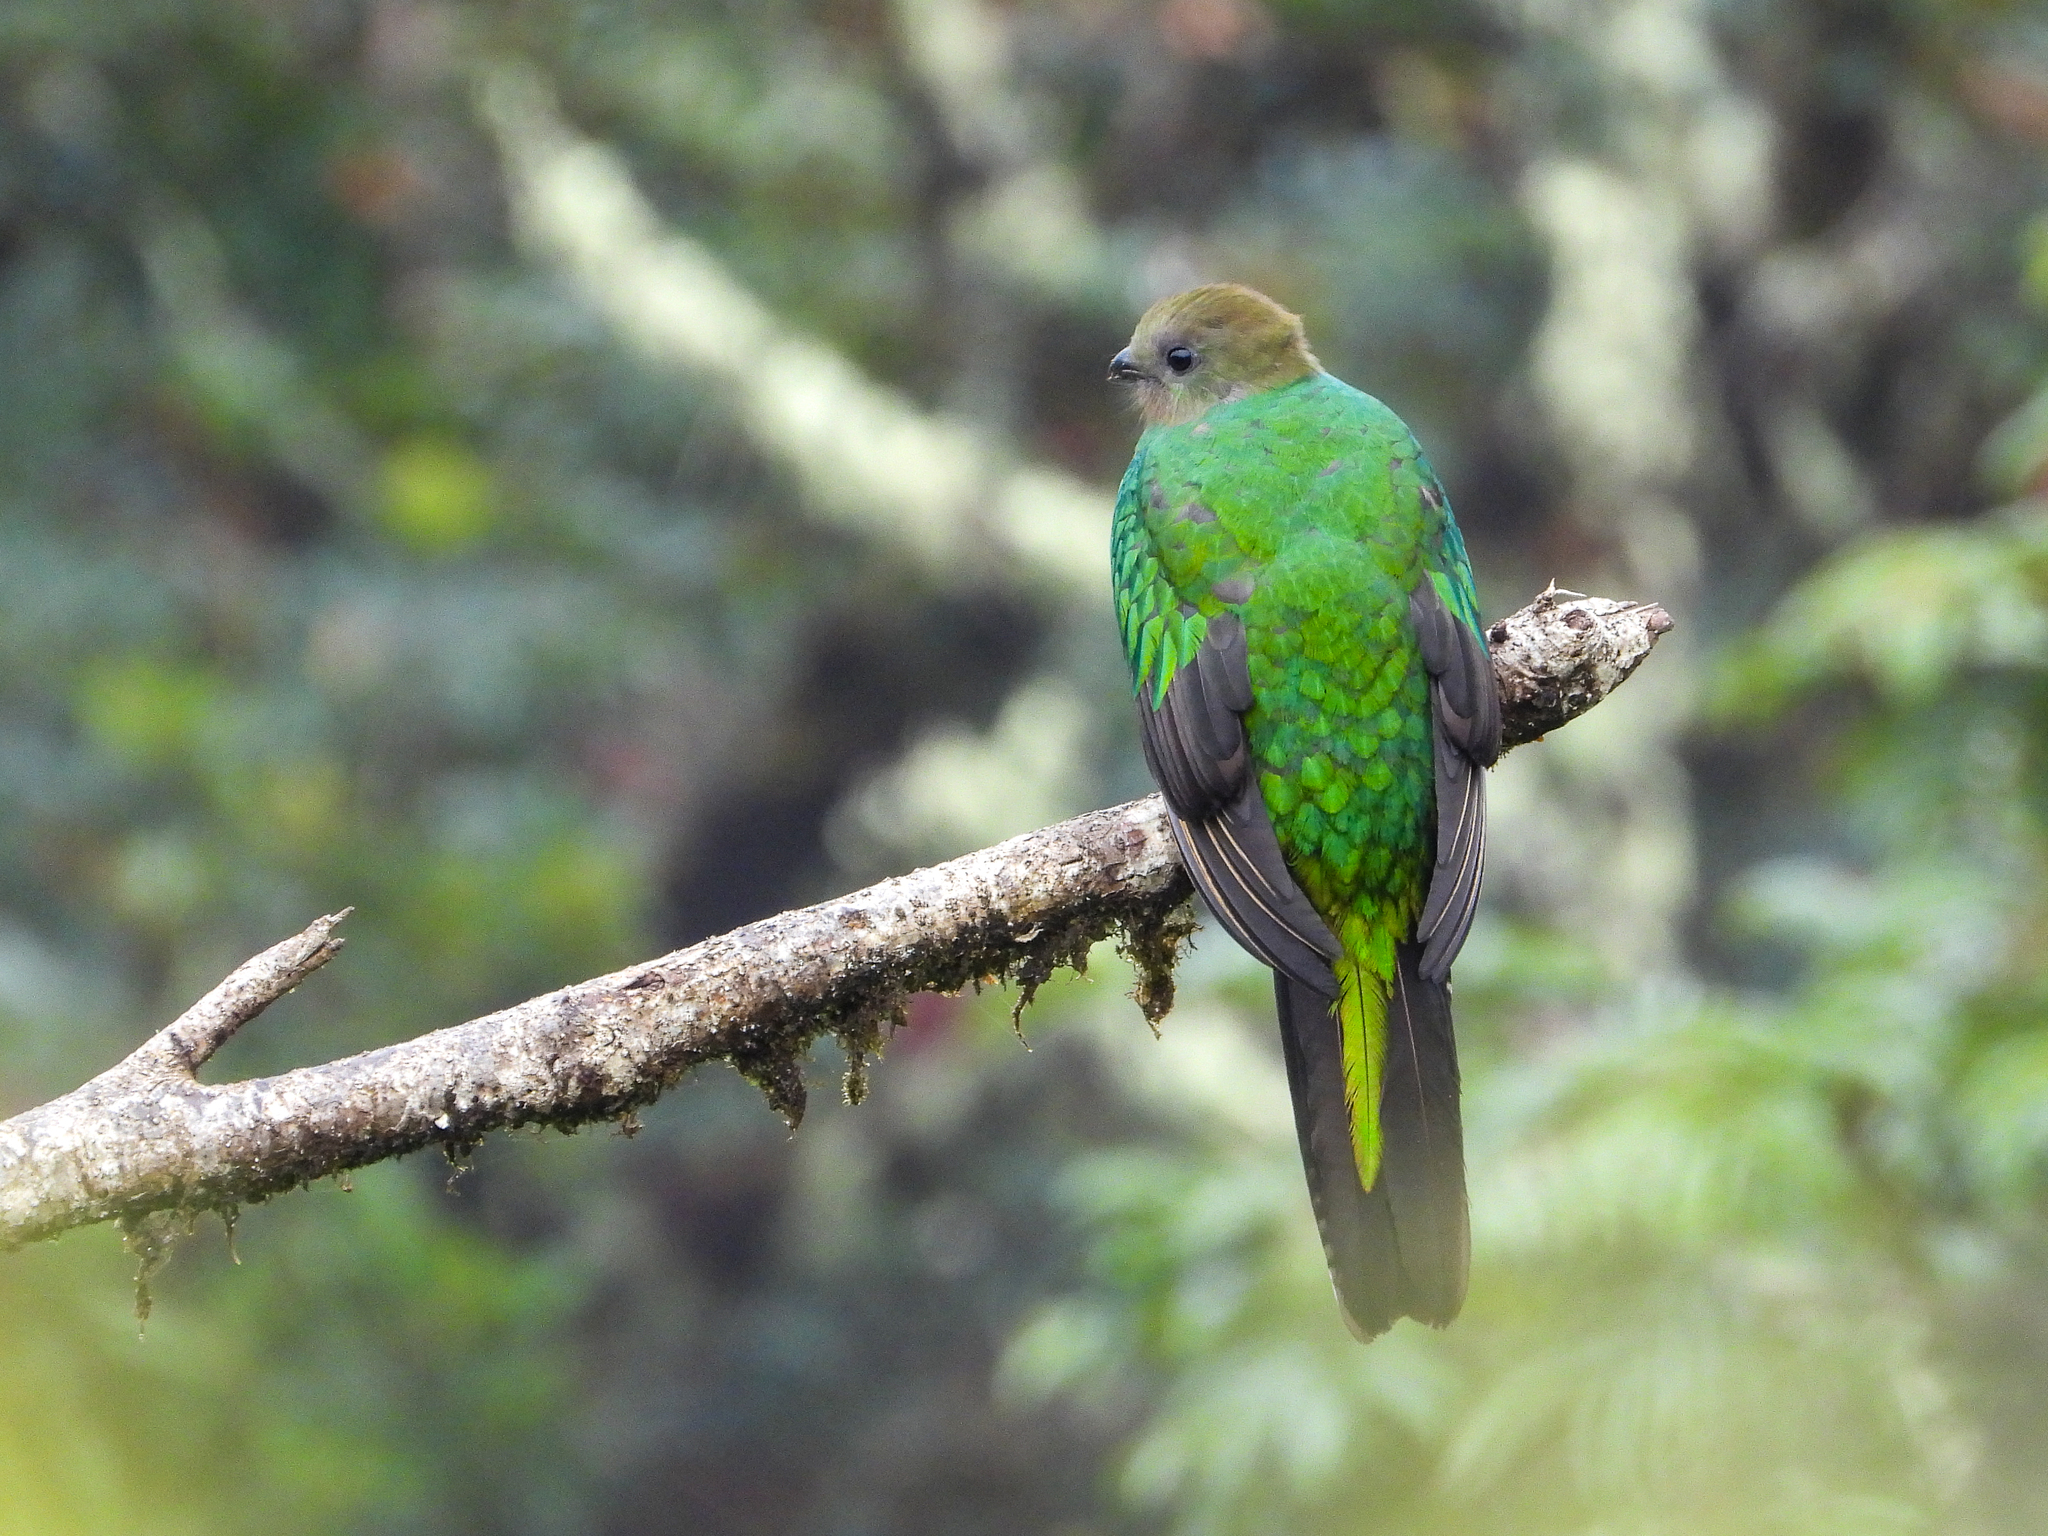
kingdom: Animalia
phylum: Chordata
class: Aves
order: Trogoniformes
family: Trogonidae
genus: Pharomachrus
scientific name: Pharomachrus mocinno
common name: Resplendent quetzal
